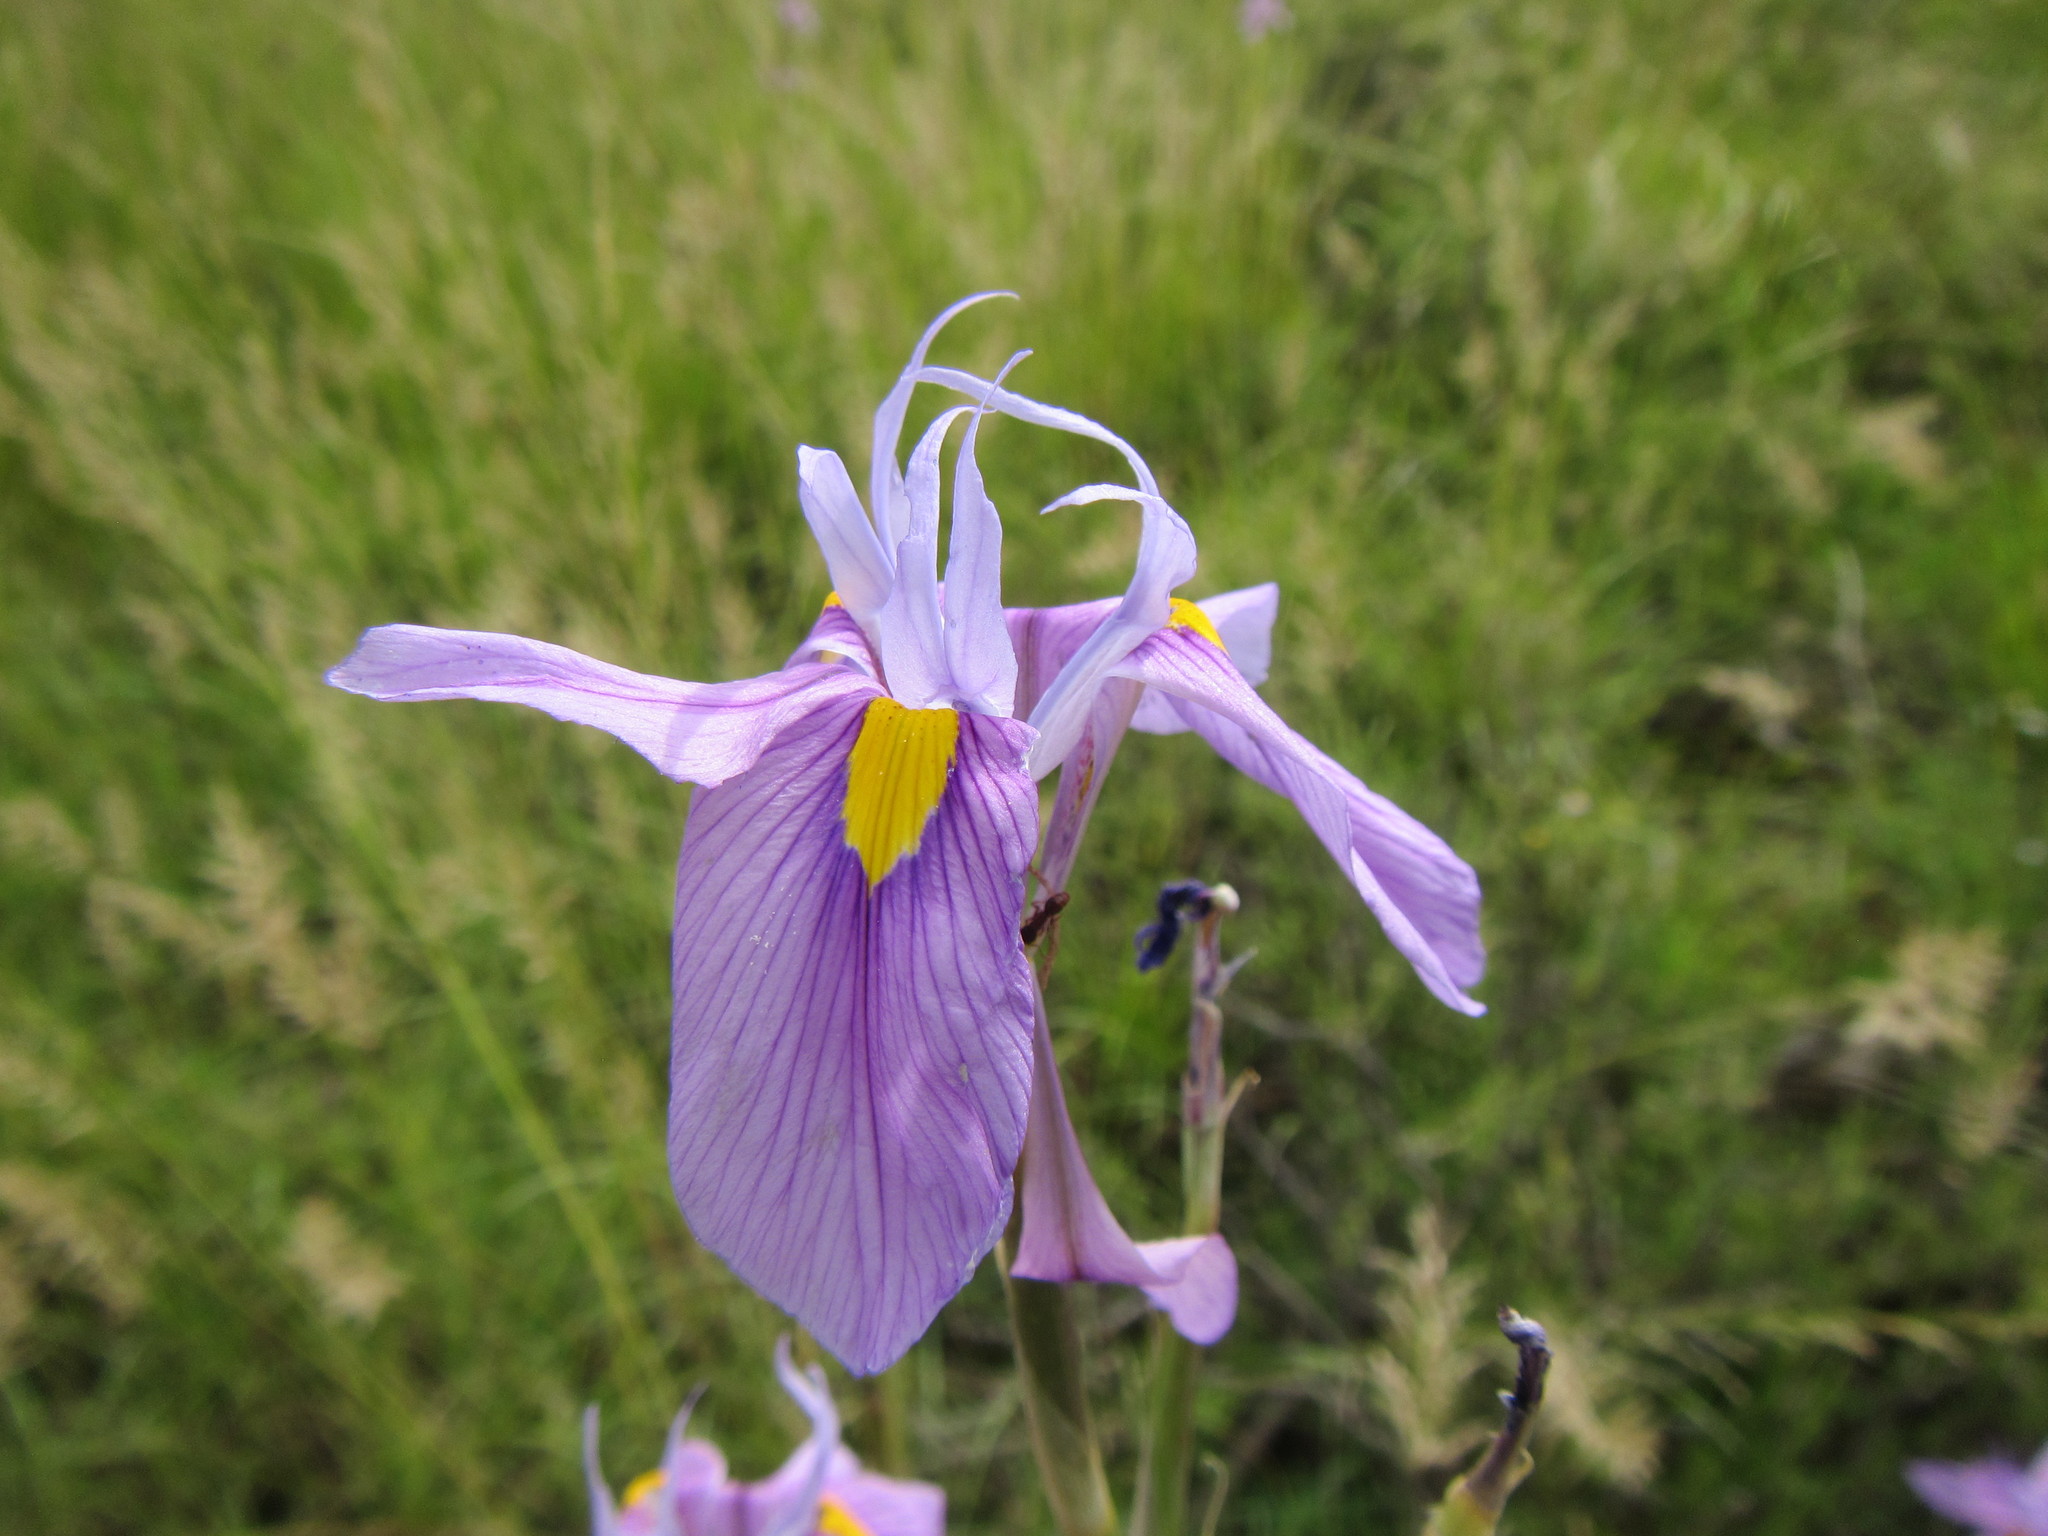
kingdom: Plantae
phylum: Tracheophyta
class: Liliopsida
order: Asparagales
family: Iridaceae
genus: Moraea
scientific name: Moraea polystachya
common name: Blue-tulip
